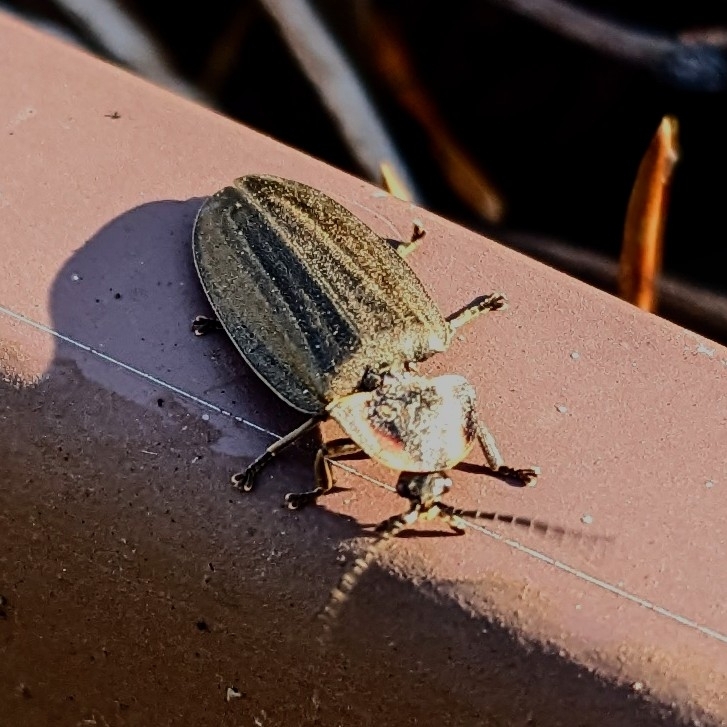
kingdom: Animalia
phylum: Arthropoda
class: Insecta
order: Coleoptera
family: Lampyridae
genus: Photinus
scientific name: Photinus corrusca
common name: Winter firefly
